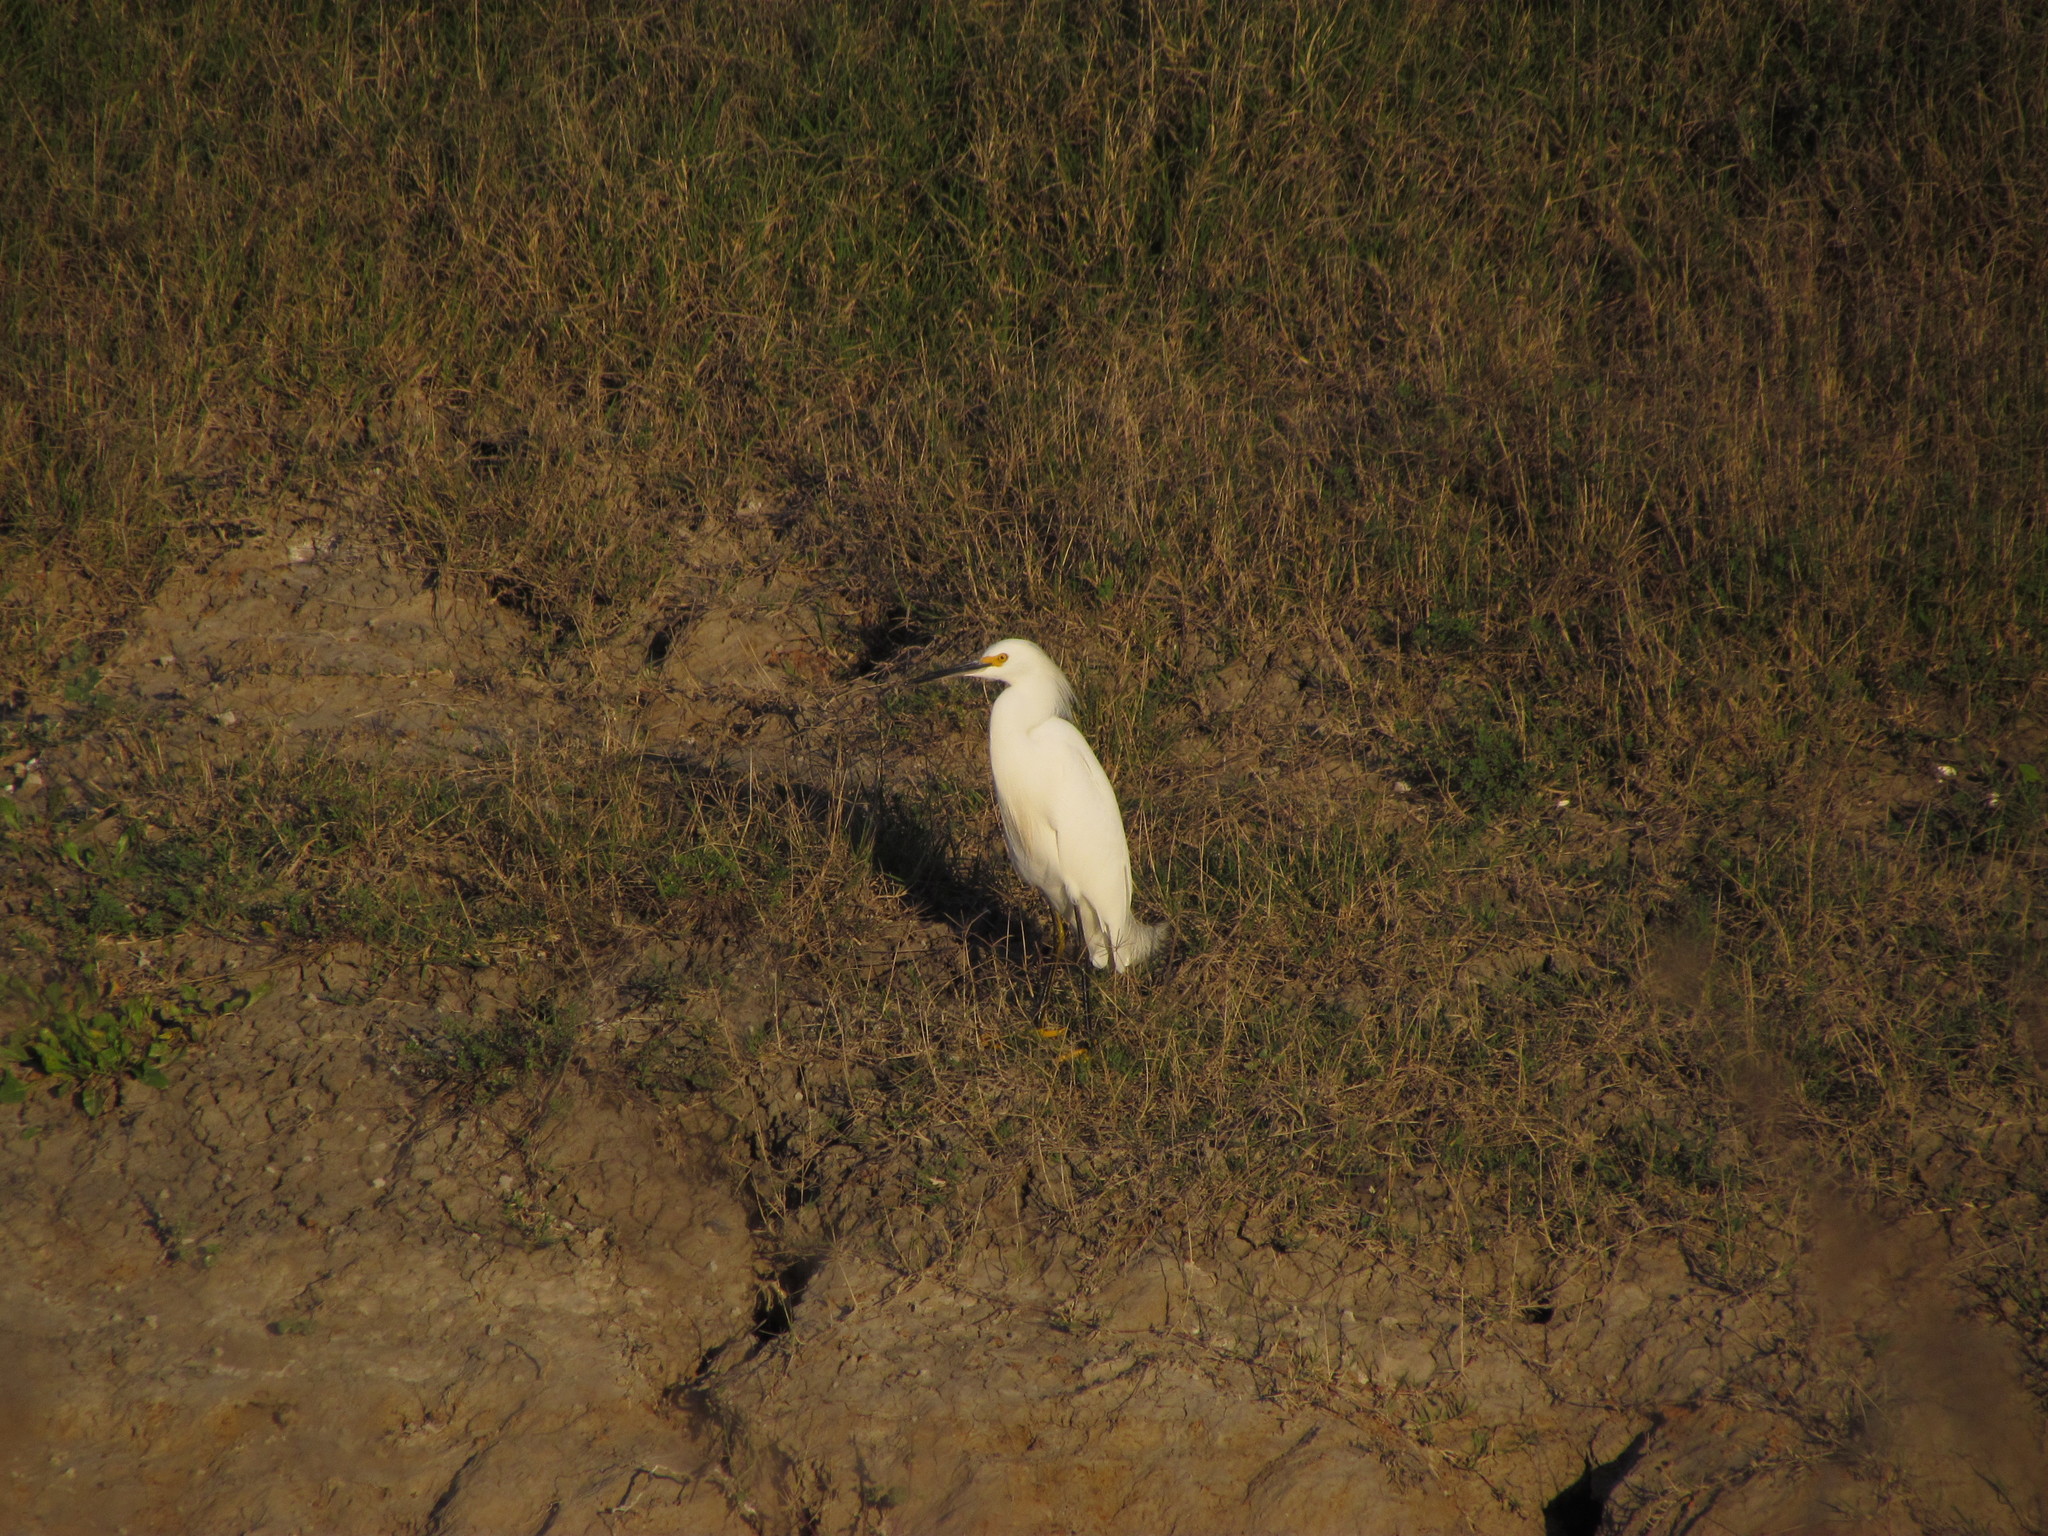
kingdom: Animalia
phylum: Chordata
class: Aves
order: Pelecaniformes
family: Ardeidae
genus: Egretta
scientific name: Egretta thula
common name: Snowy egret
